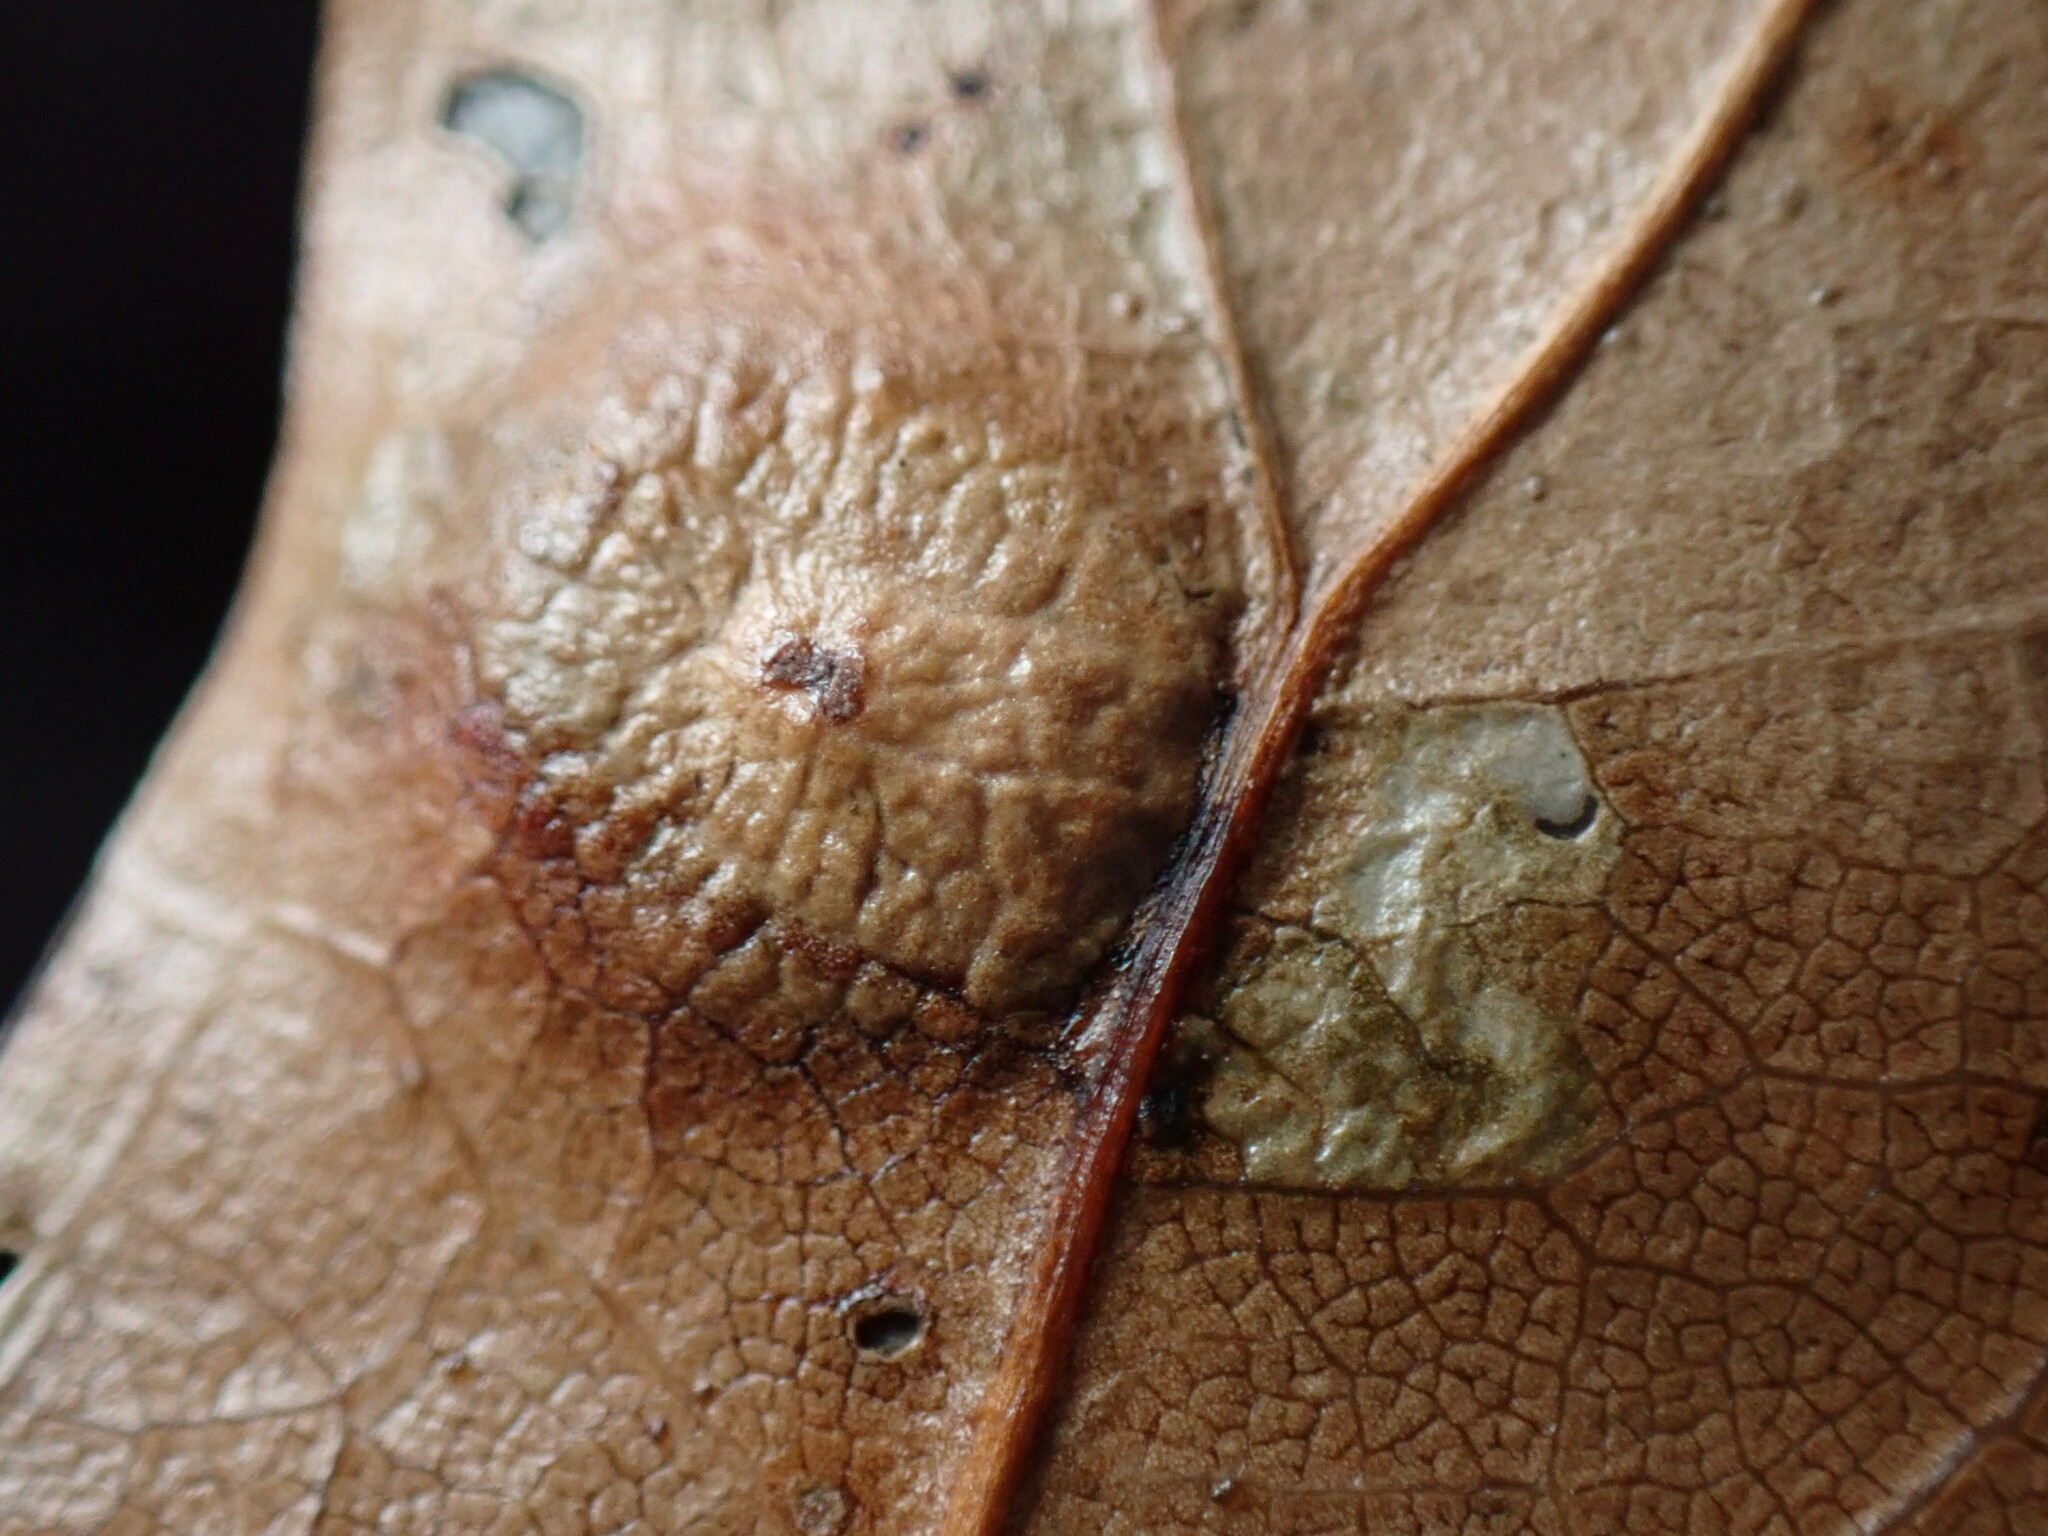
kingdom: Animalia
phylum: Arthropoda
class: Insecta
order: Diptera
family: Cecidomyiidae
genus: Polystepha
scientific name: Polystepha pilulae
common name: Oak leaf gall midge
